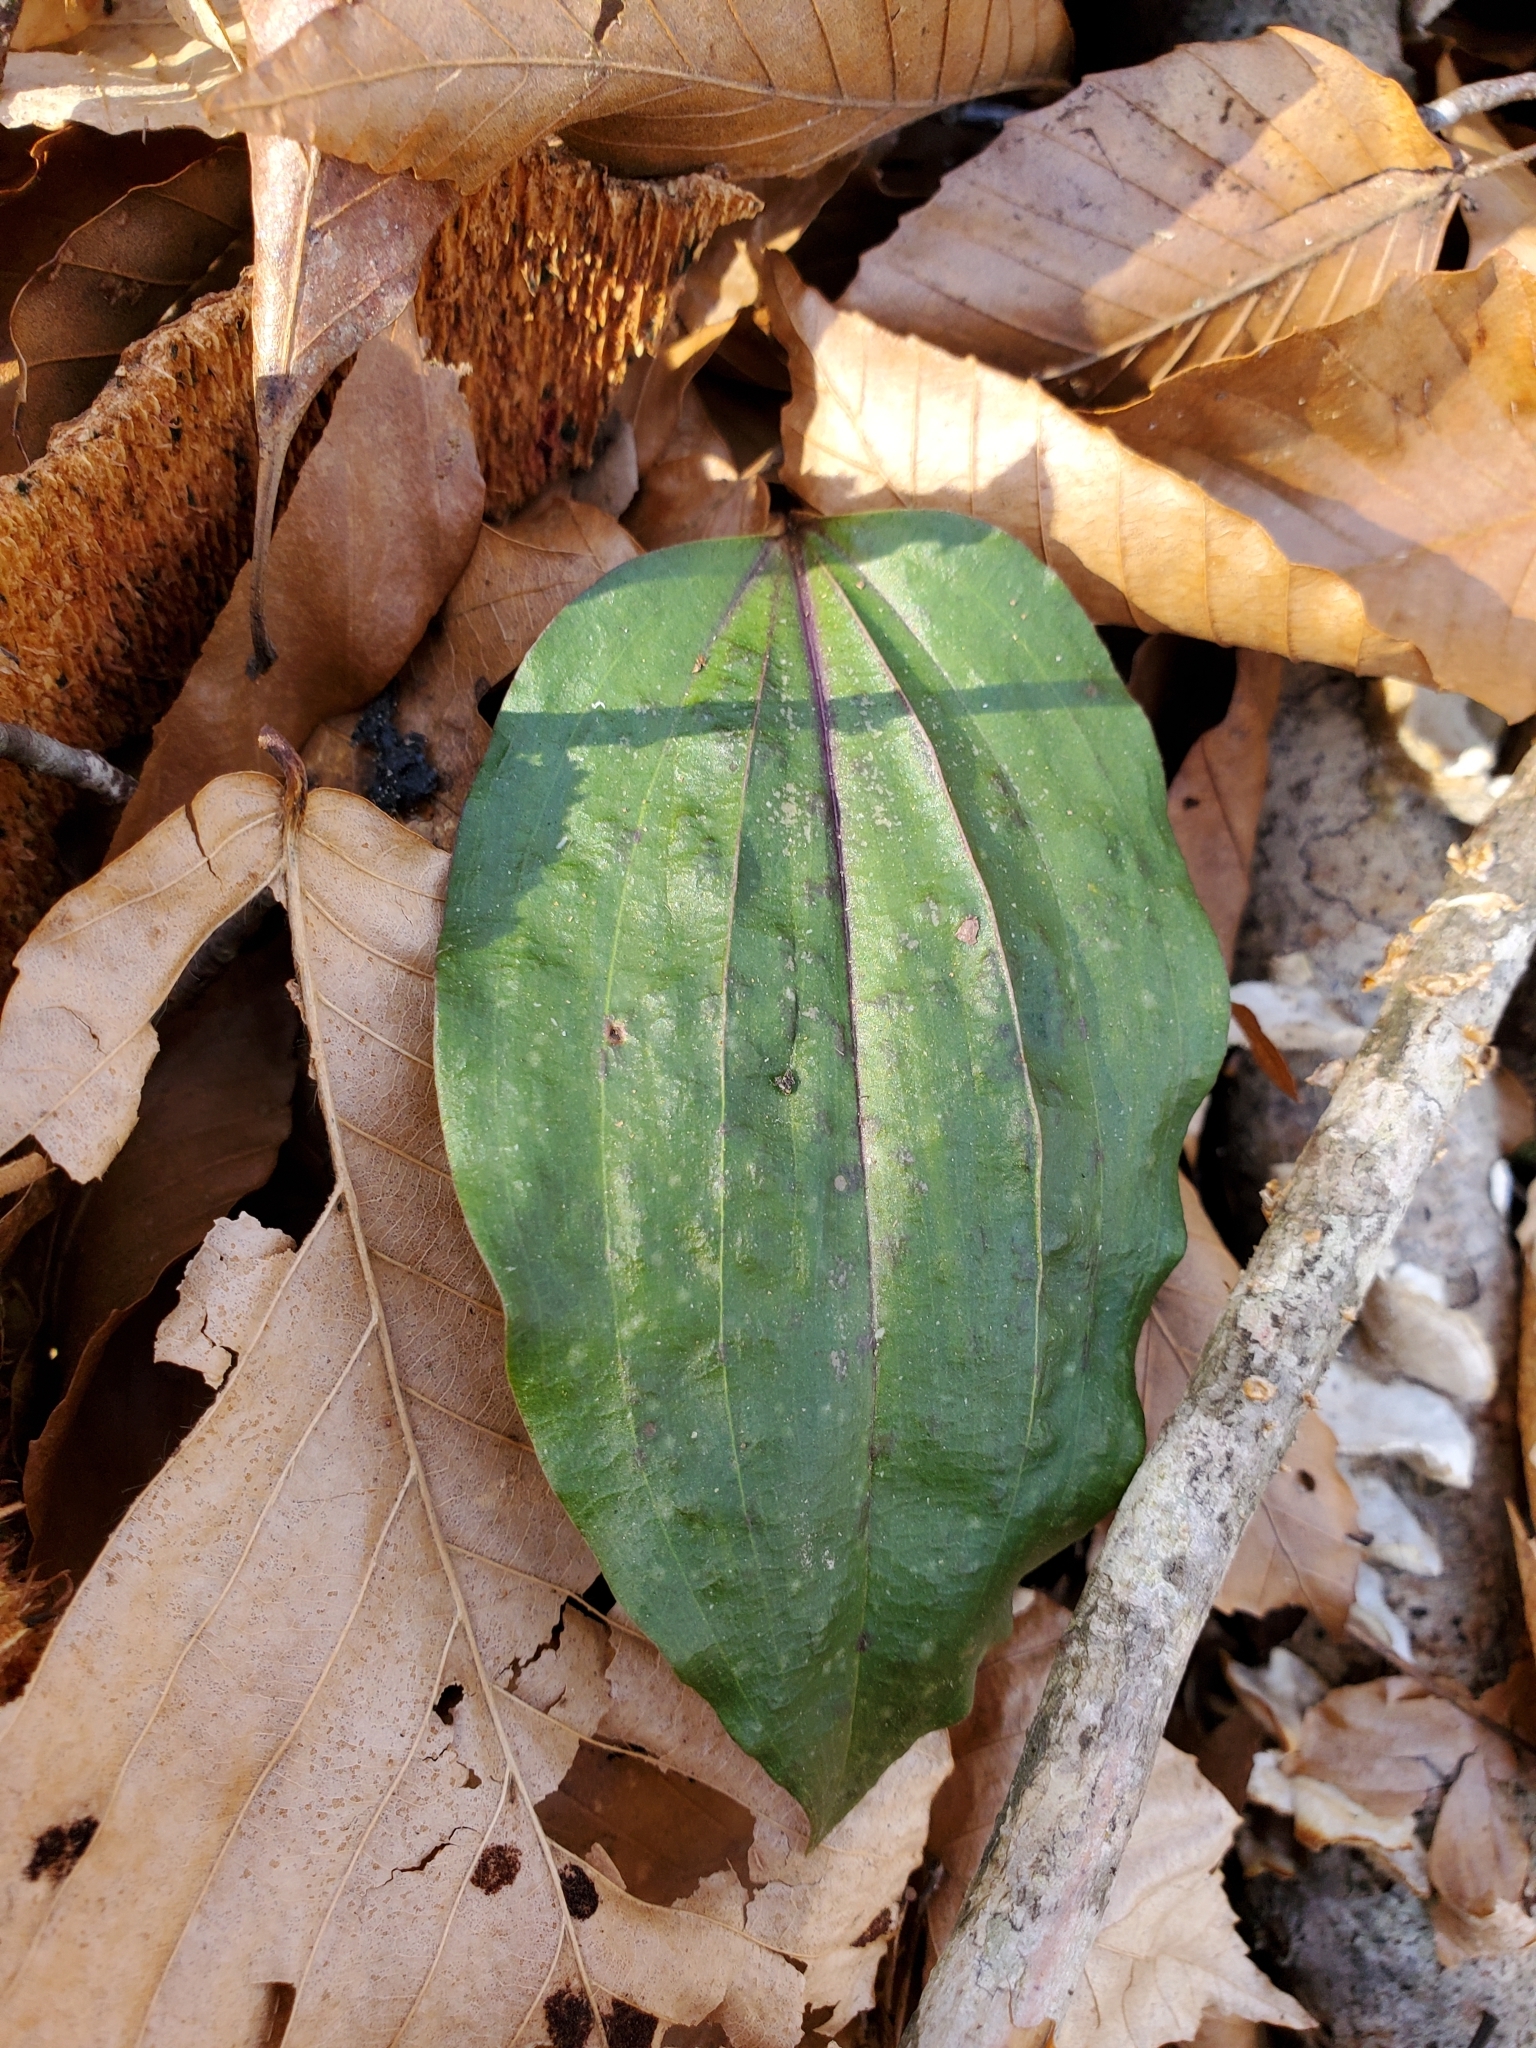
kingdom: Plantae
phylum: Tracheophyta
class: Liliopsida
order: Asparagales
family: Orchidaceae
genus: Tipularia
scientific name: Tipularia discolor
